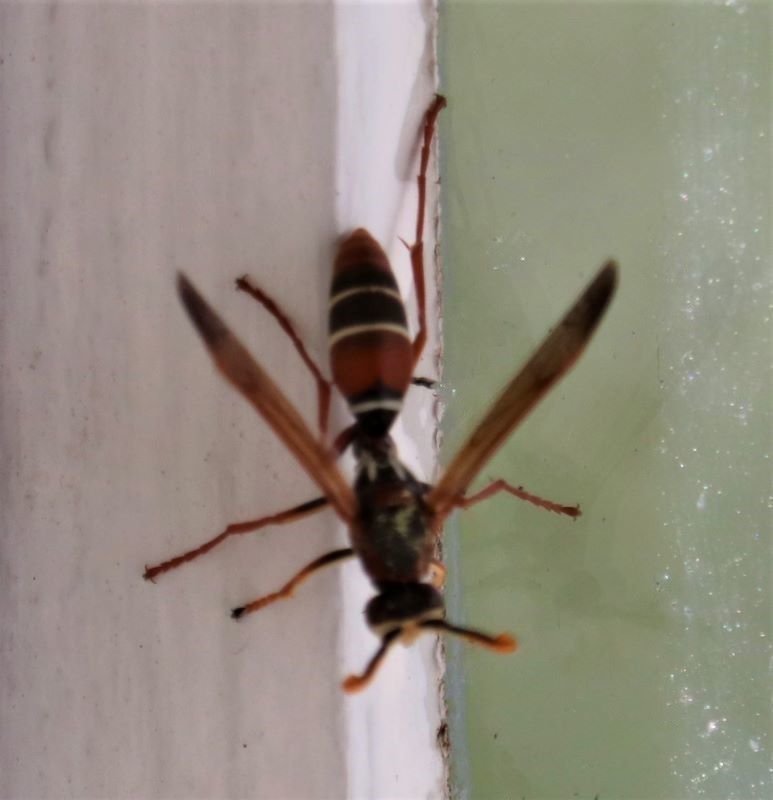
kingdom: Animalia
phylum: Arthropoda
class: Insecta
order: Hymenoptera
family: Eumenidae
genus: Polistes
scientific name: Polistes marginalis
